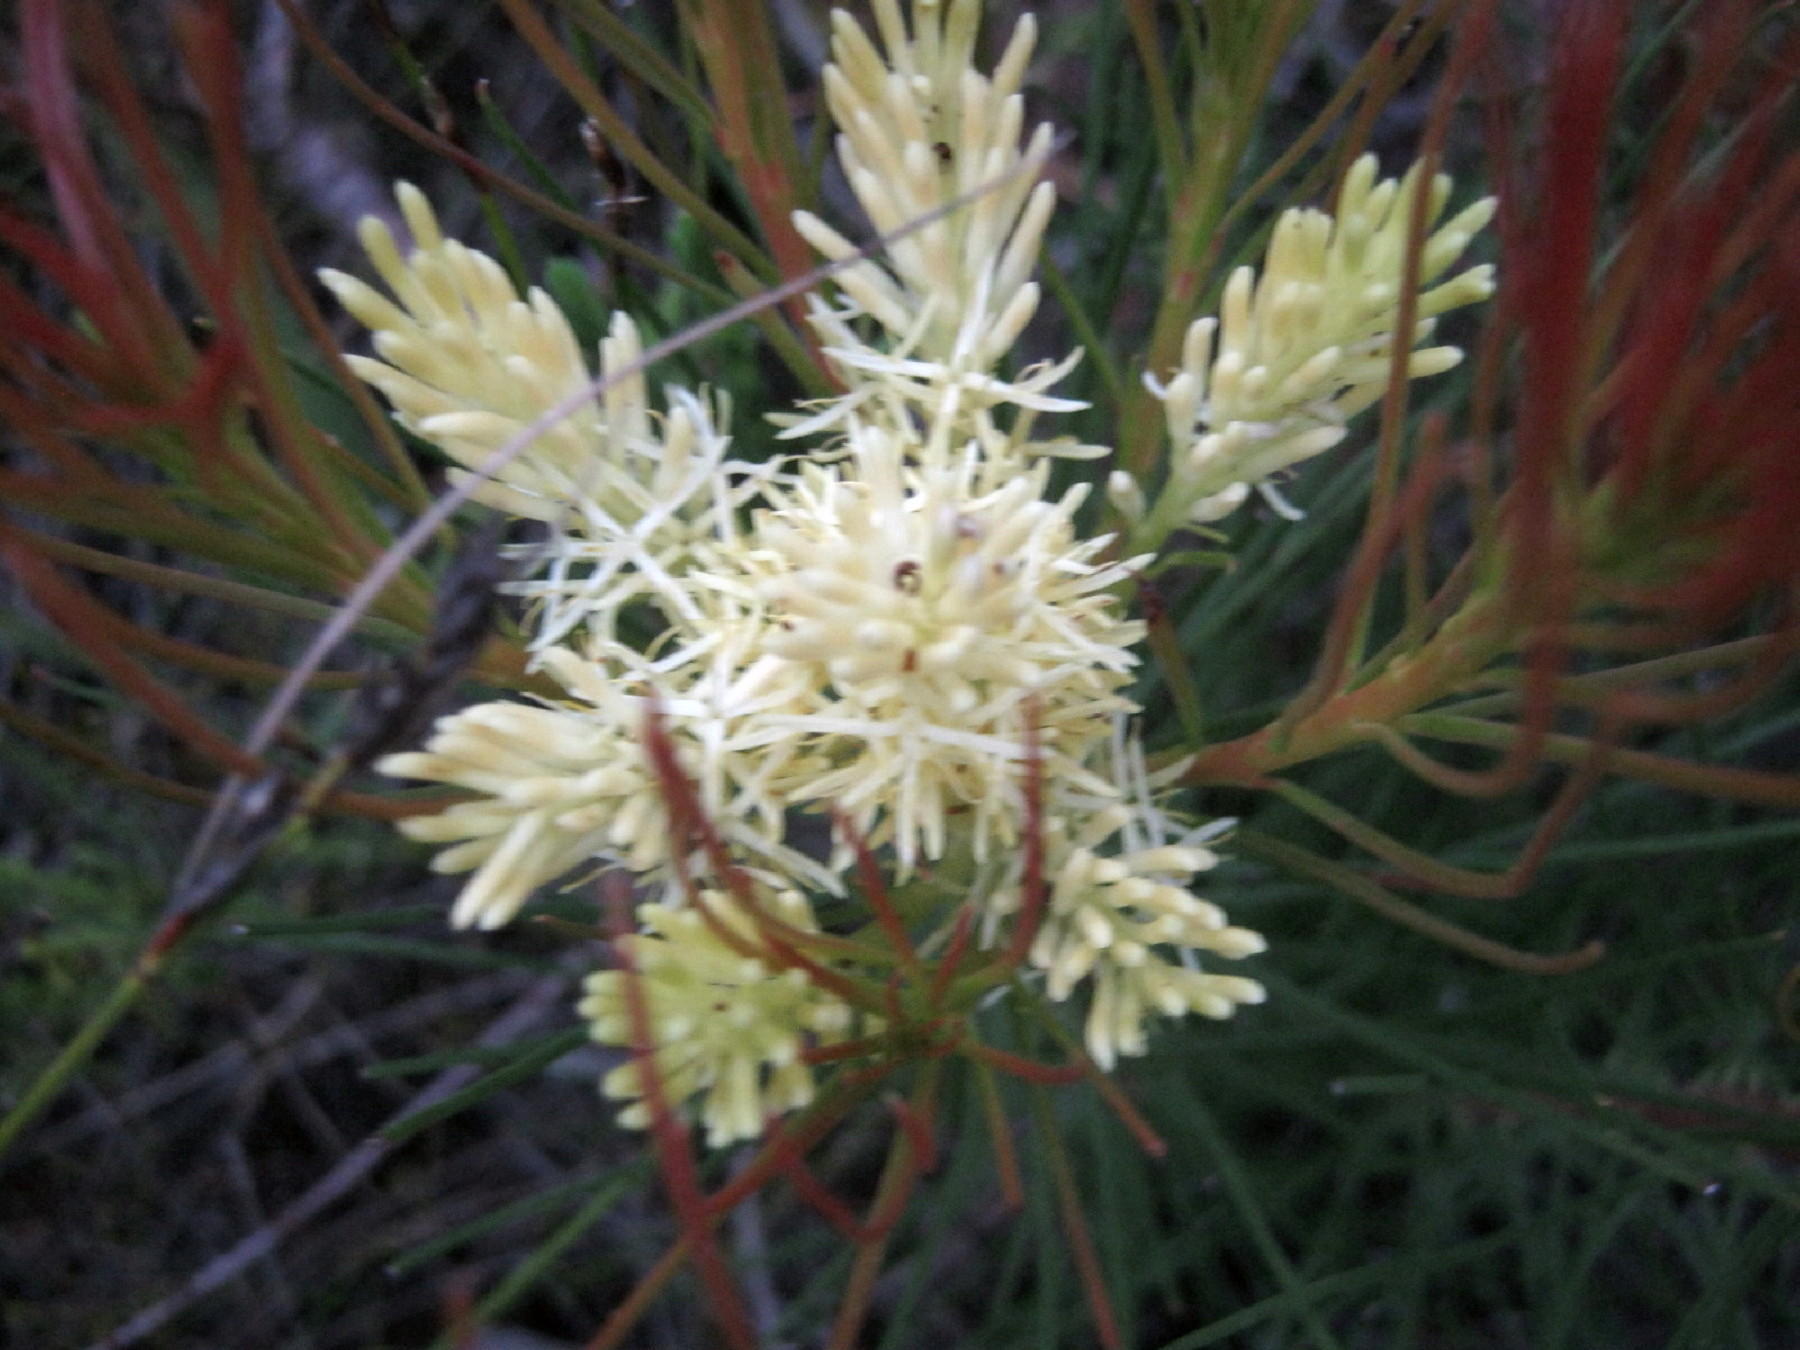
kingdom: Plantae
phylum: Tracheophyta
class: Magnoliopsida
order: Proteales
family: Proteaceae
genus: Aulax
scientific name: Aulax cancellata
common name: Channel-leaf featherbush
